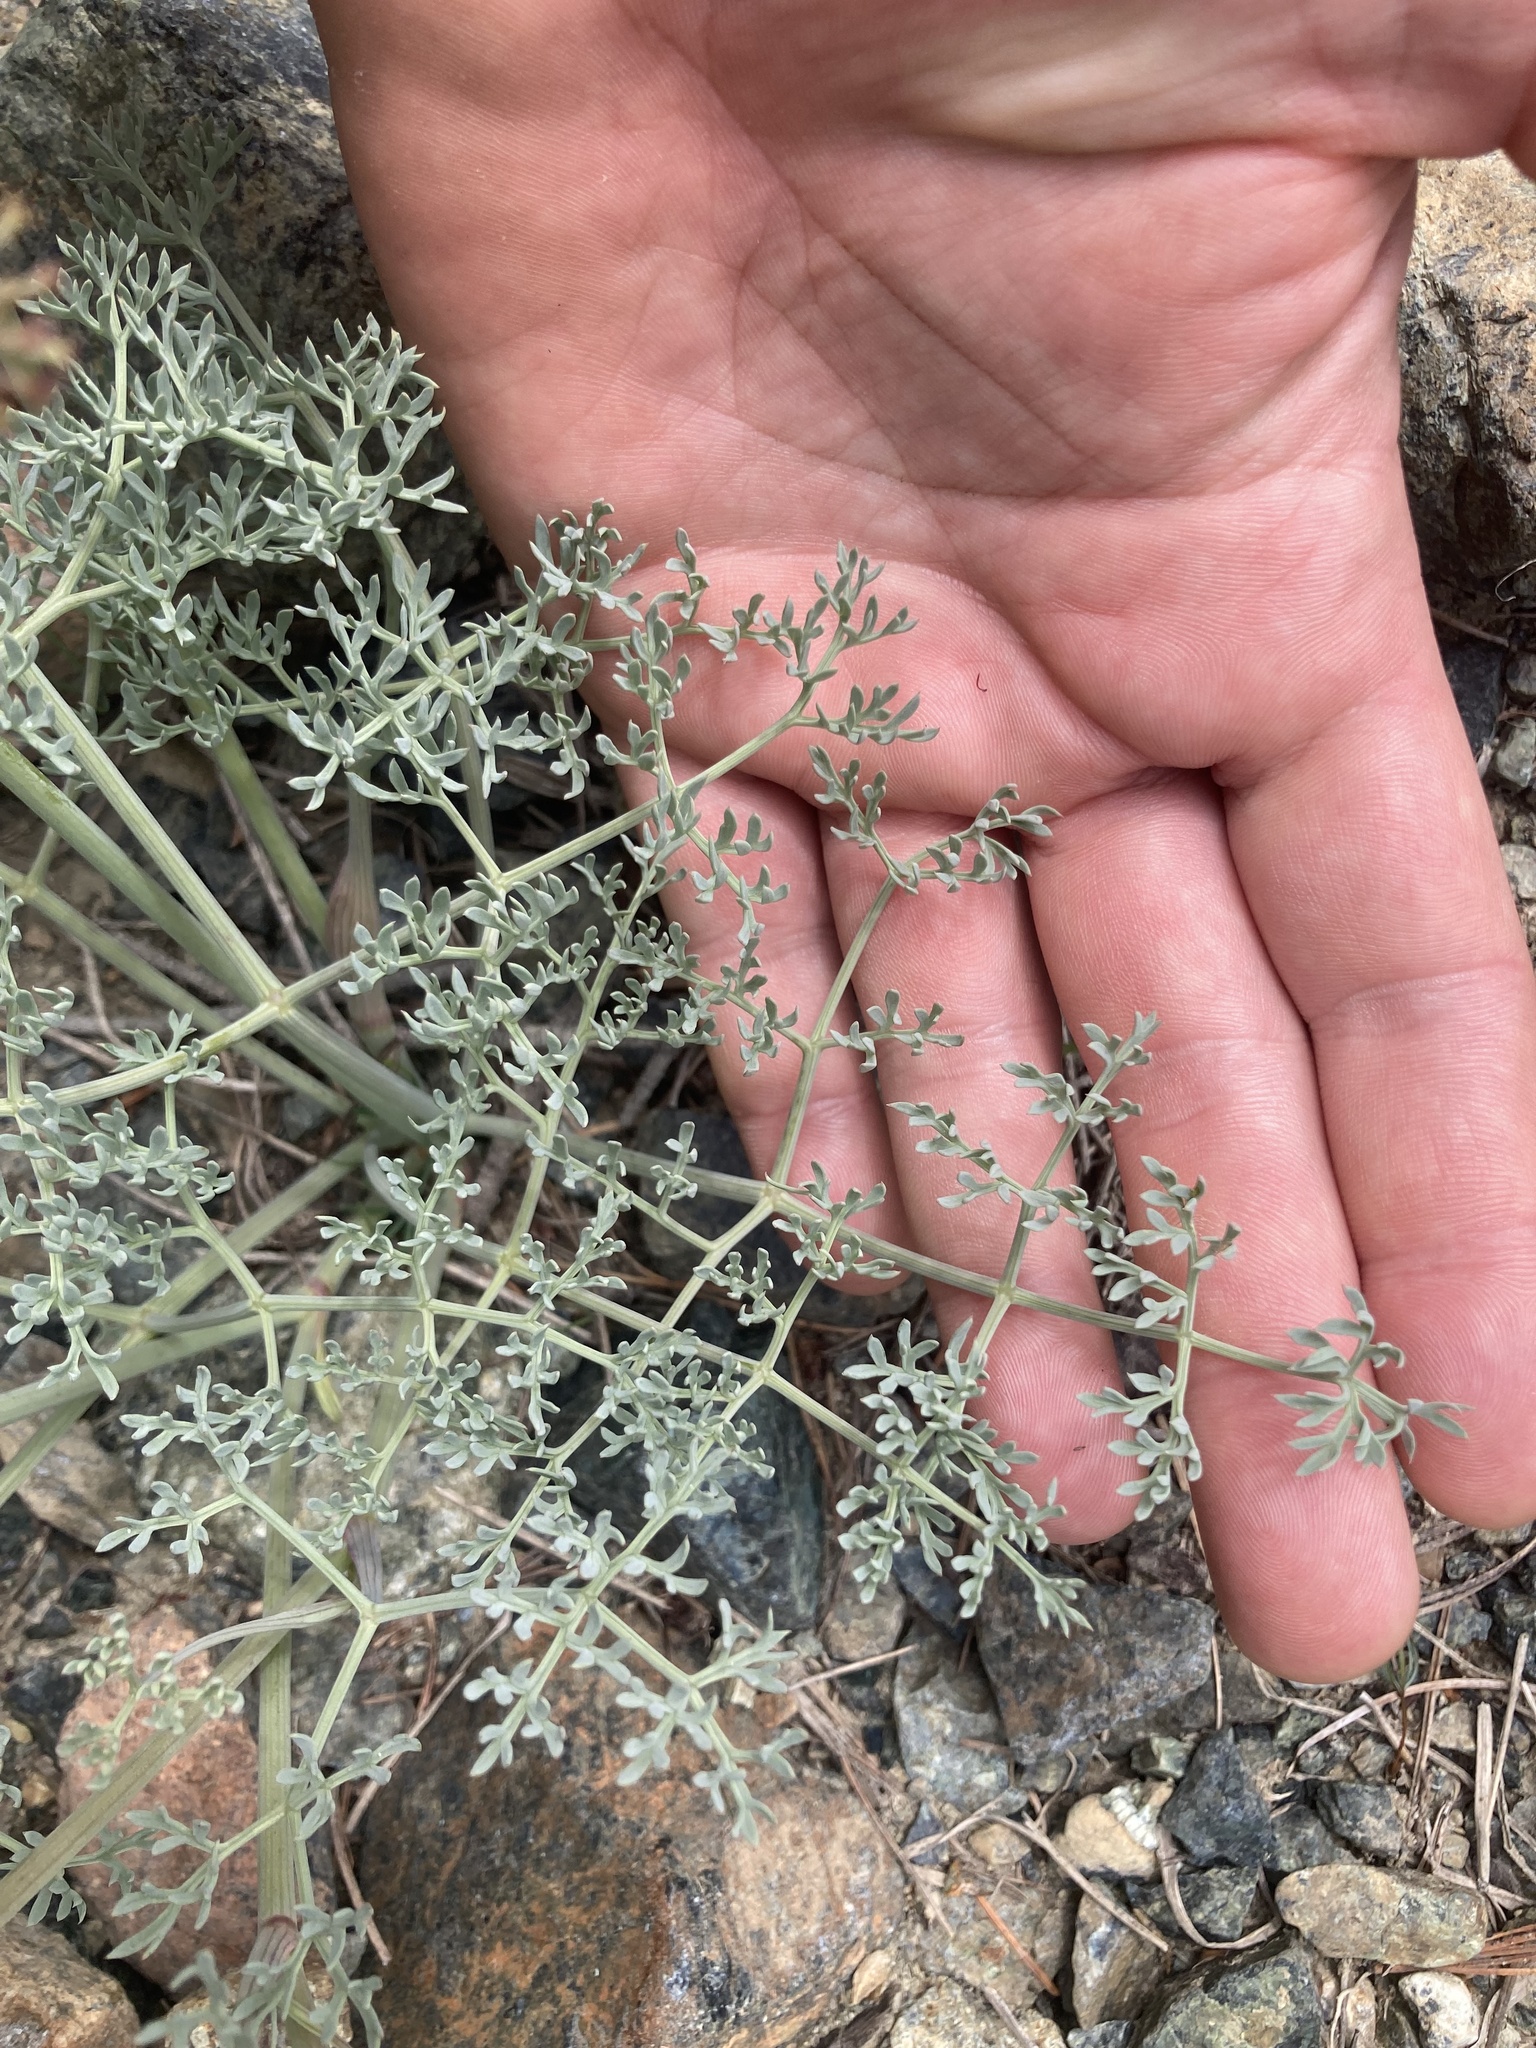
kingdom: Plantae
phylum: Tracheophyta
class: Magnoliopsida
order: Apiales
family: Apiaceae
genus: Lomatium
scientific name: Lomatium cuspidatum
